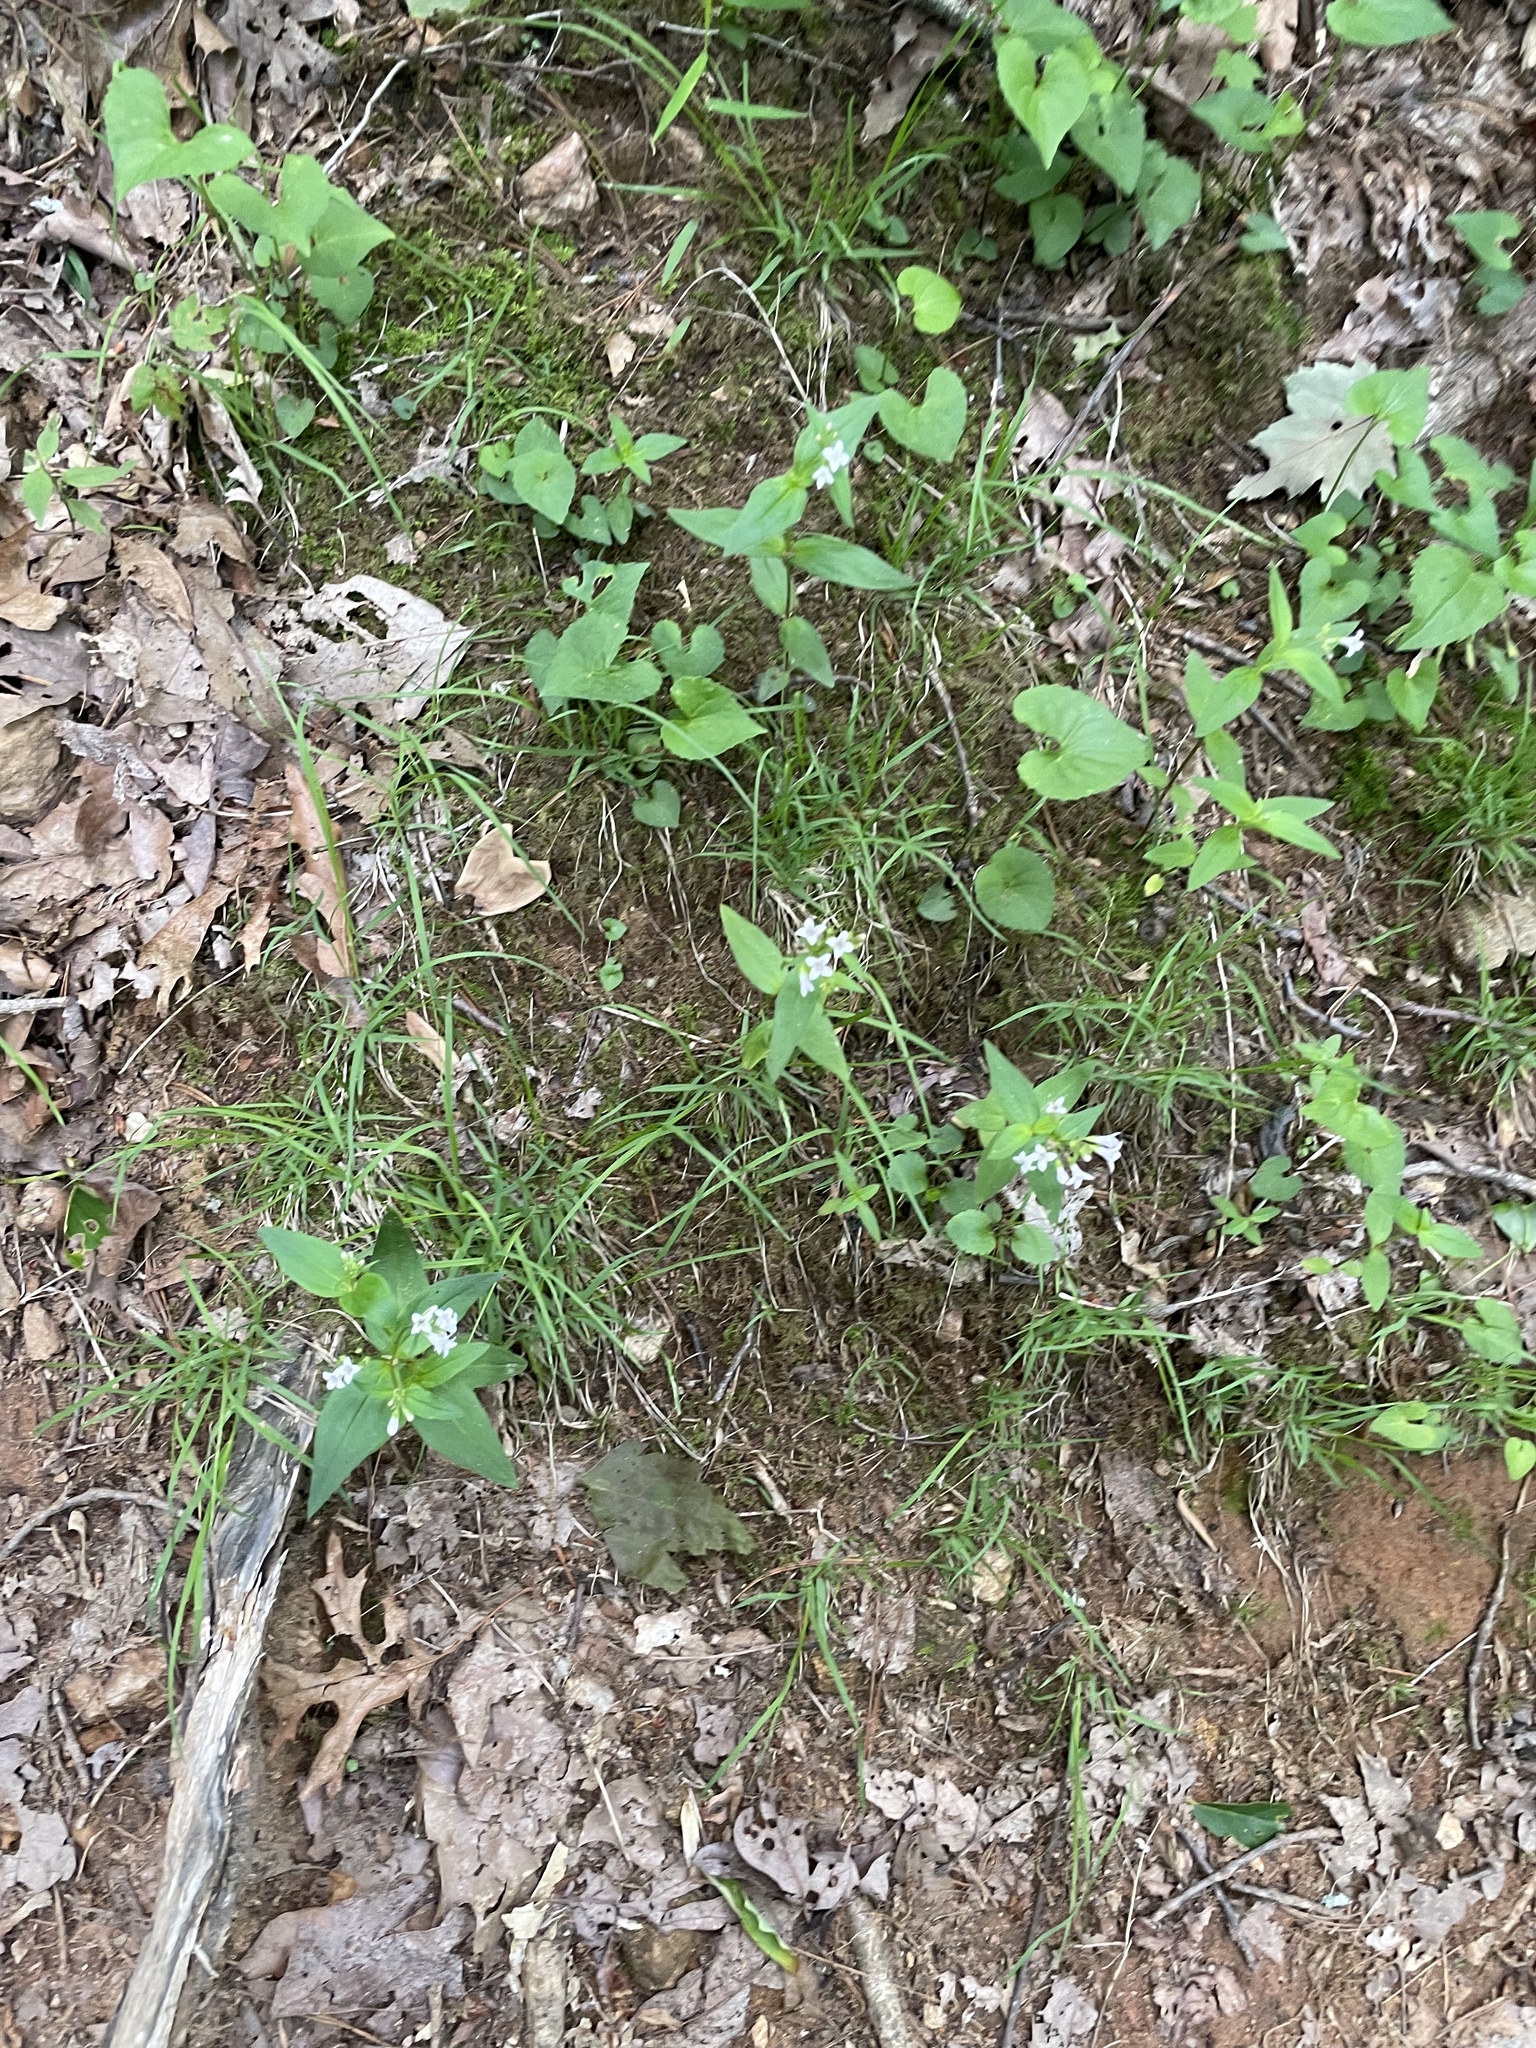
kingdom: Plantae
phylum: Tracheophyta
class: Magnoliopsida
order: Gentianales
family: Rubiaceae
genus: Houstonia
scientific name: Houstonia purpurea
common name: Summer bluet
